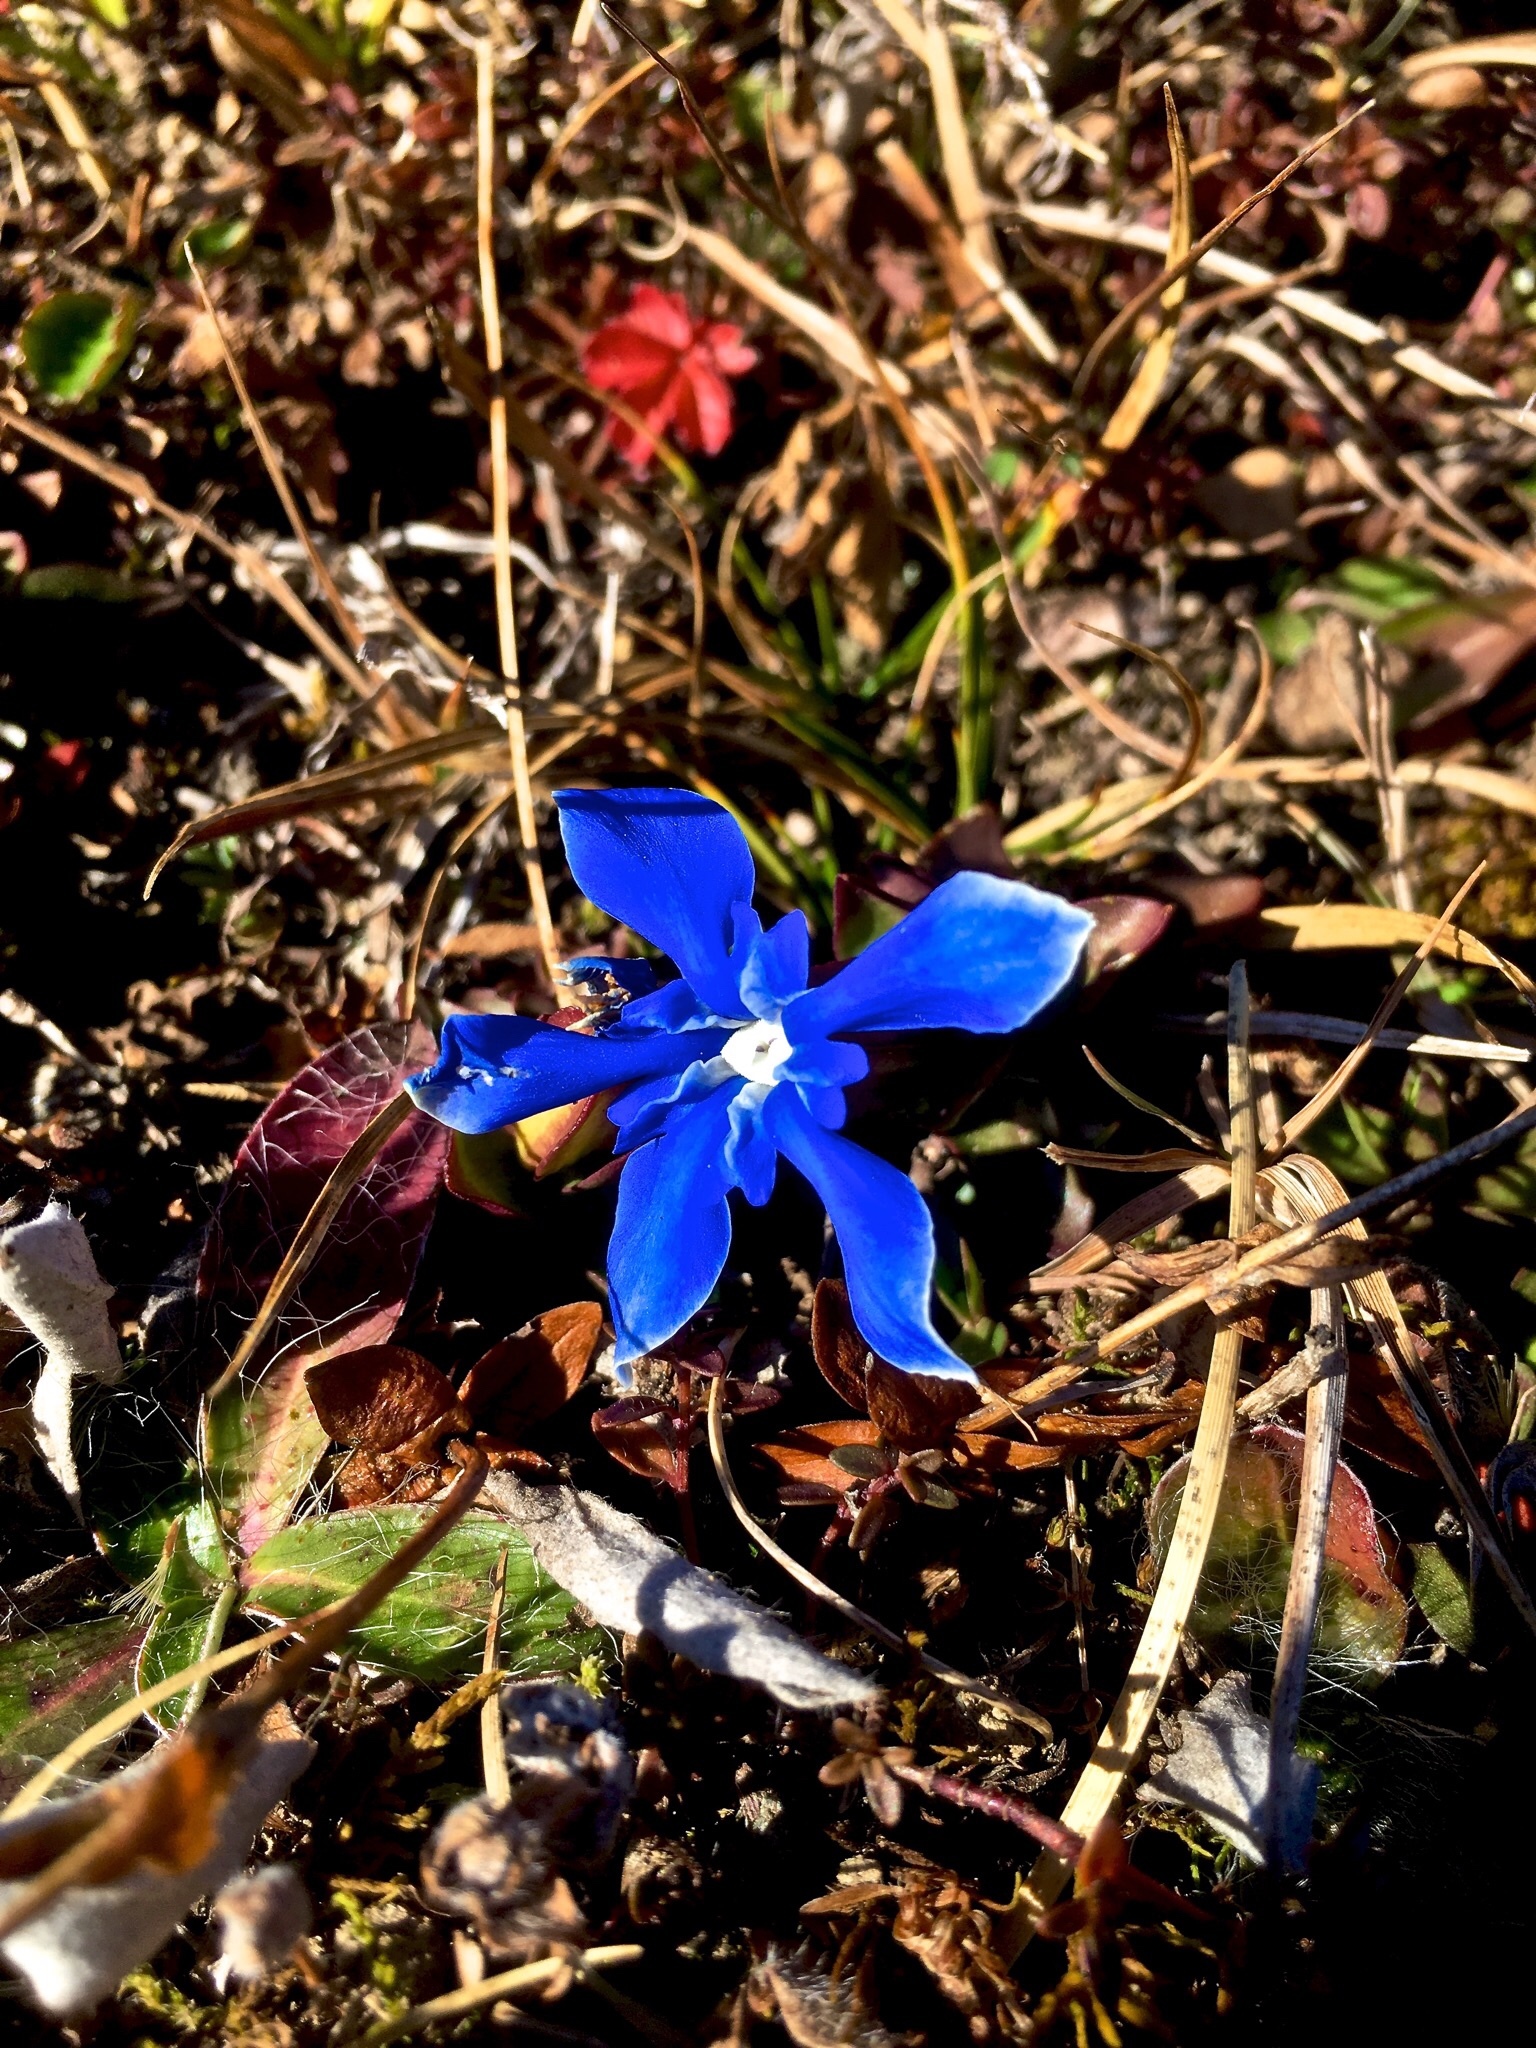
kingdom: Plantae
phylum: Tracheophyta
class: Magnoliopsida
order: Gentianales
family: Gentianaceae
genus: Gentiana
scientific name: Gentiana verna
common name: Spring gentian
